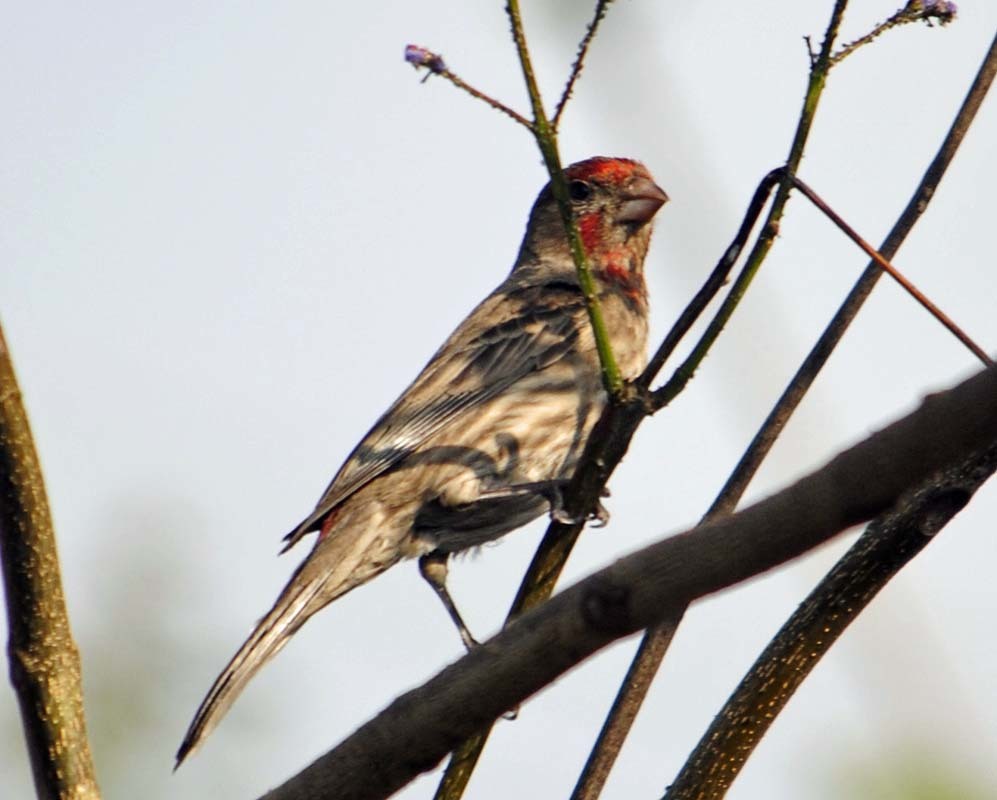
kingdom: Animalia
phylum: Chordata
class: Aves
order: Passeriformes
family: Fringillidae
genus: Haemorhous
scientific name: Haemorhous mexicanus
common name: House finch
